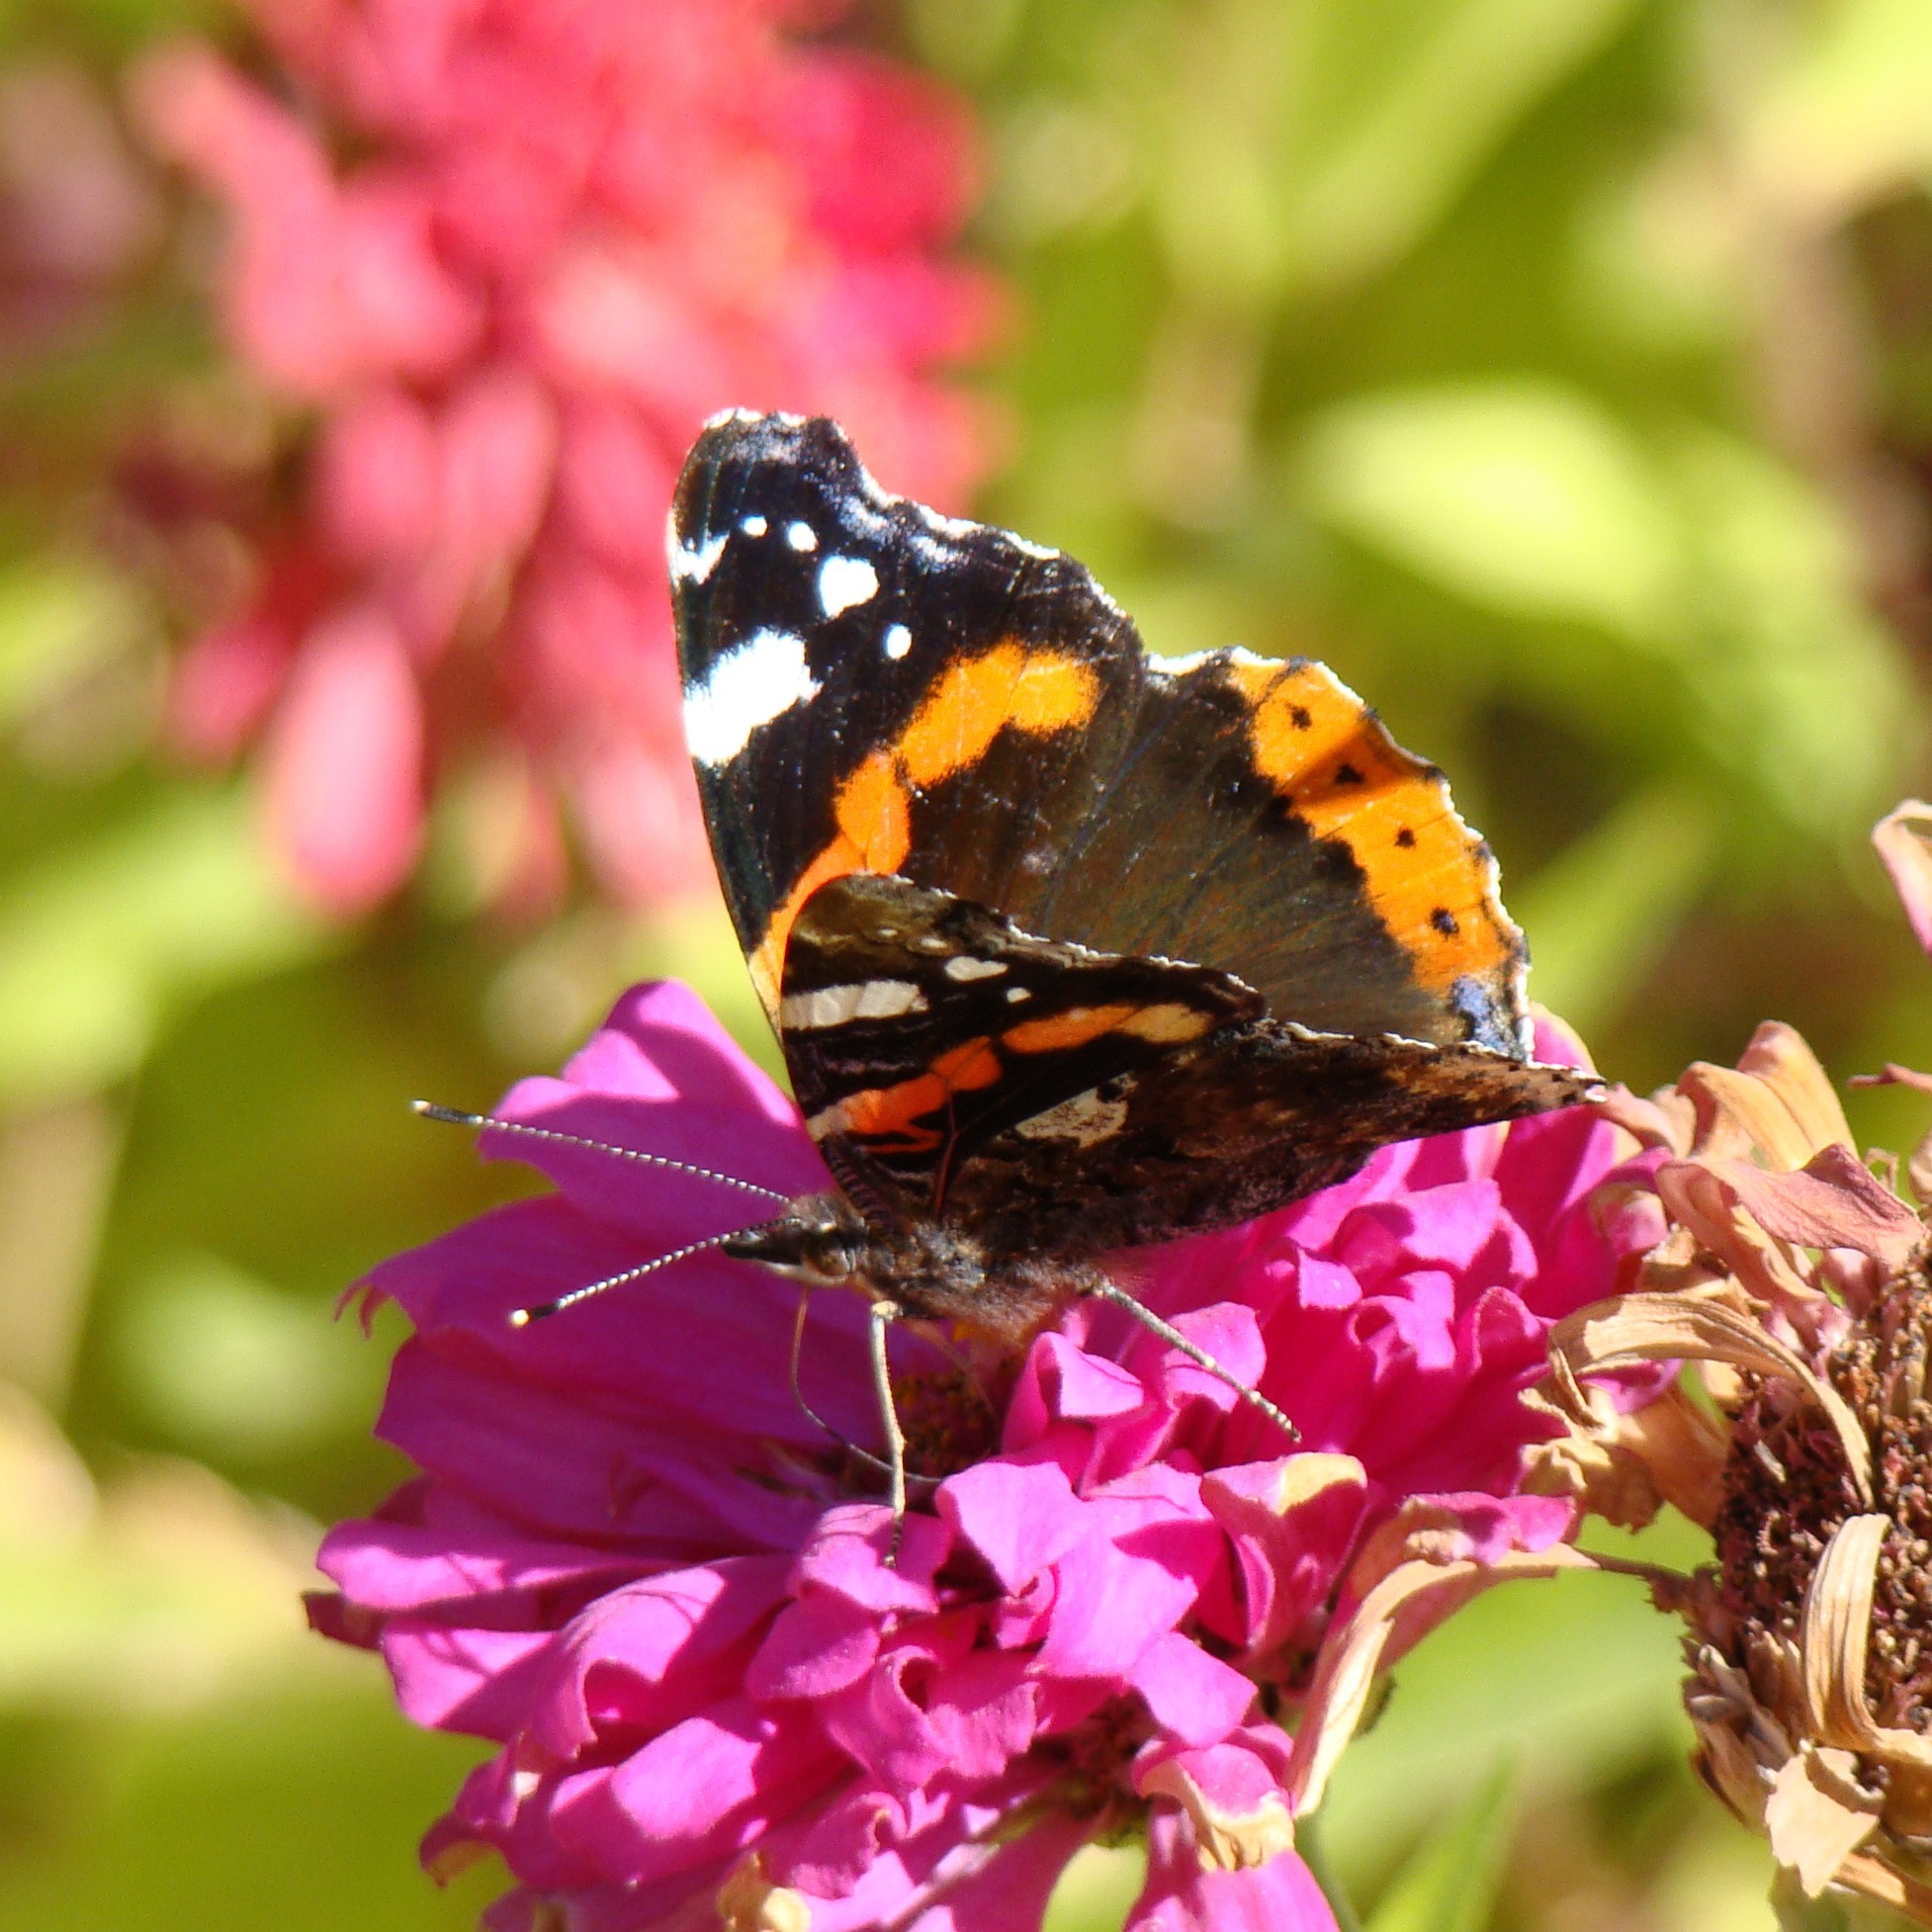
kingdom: Animalia
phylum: Arthropoda
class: Insecta
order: Lepidoptera
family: Nymphalidae
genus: Vanessa
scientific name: Vanessa atalanta
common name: Red admiral
